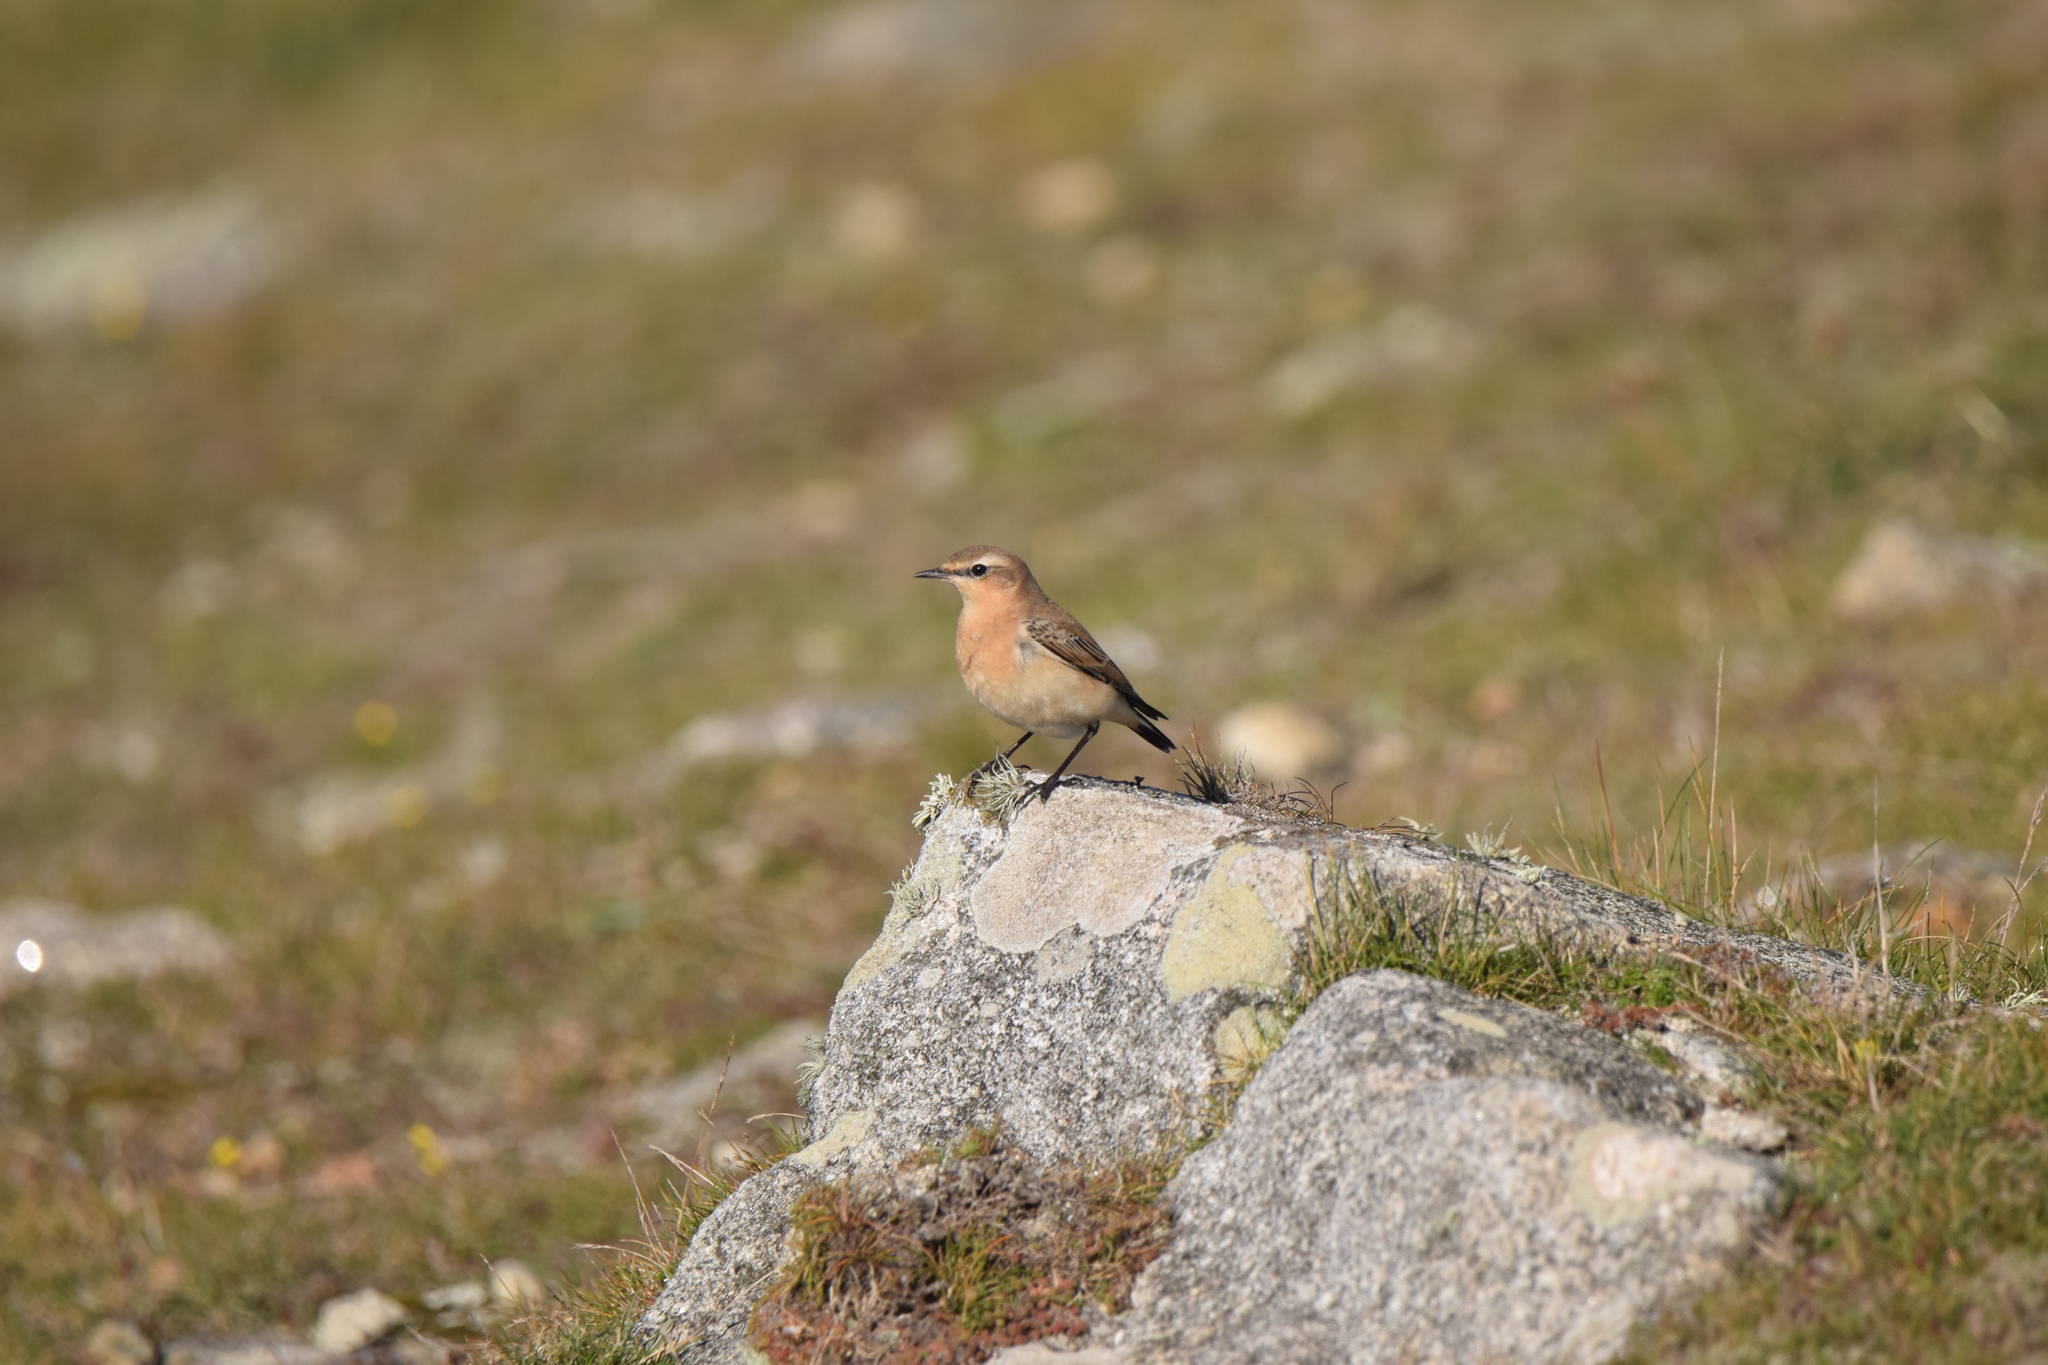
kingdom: Animalia
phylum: Chordata
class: Aves
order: Passeriformes
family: Muscicapidae
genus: Oenanthe
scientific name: Oenanthe oenanthe
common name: Northern wheatear
